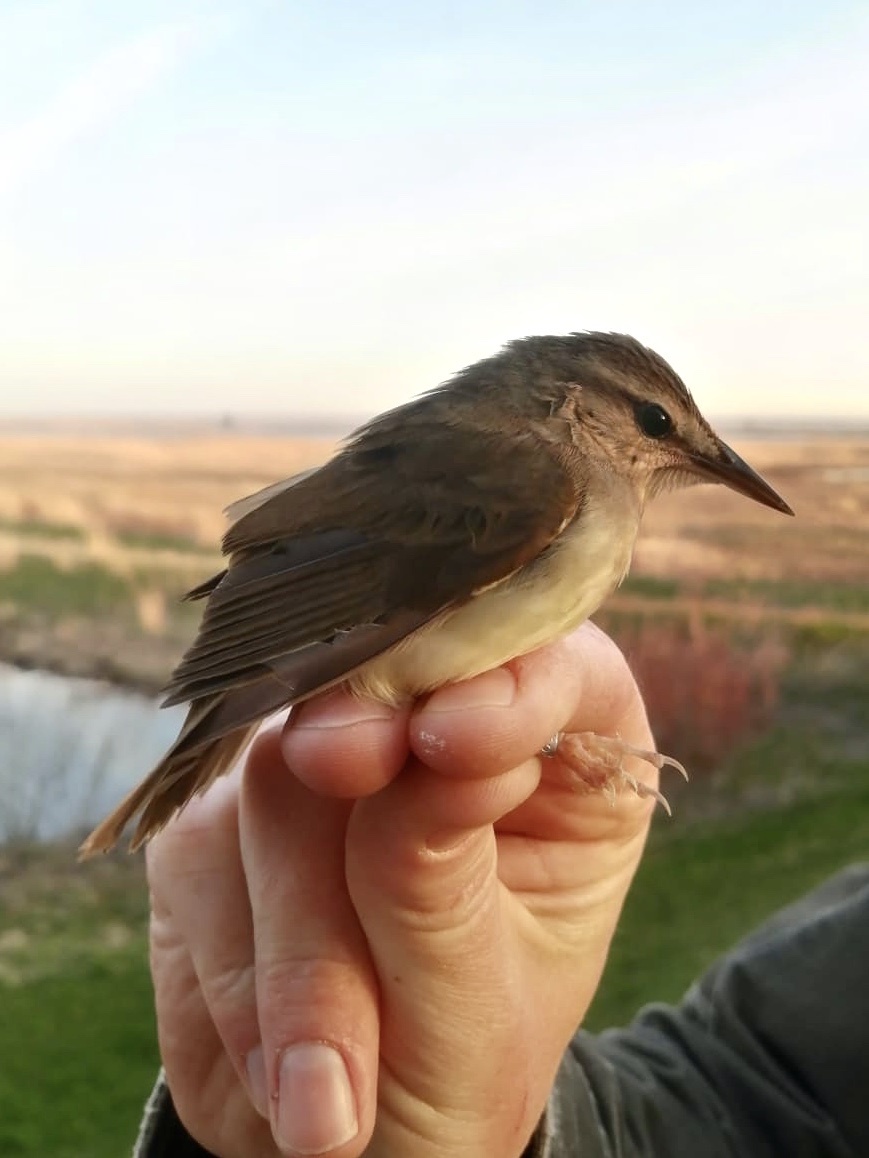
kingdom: Animalia
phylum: Chordata
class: Aves
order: Passeriformes
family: Parulidae
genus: Limnothlypis
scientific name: Limnothlypis swainsonii
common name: Swainson's warbler
